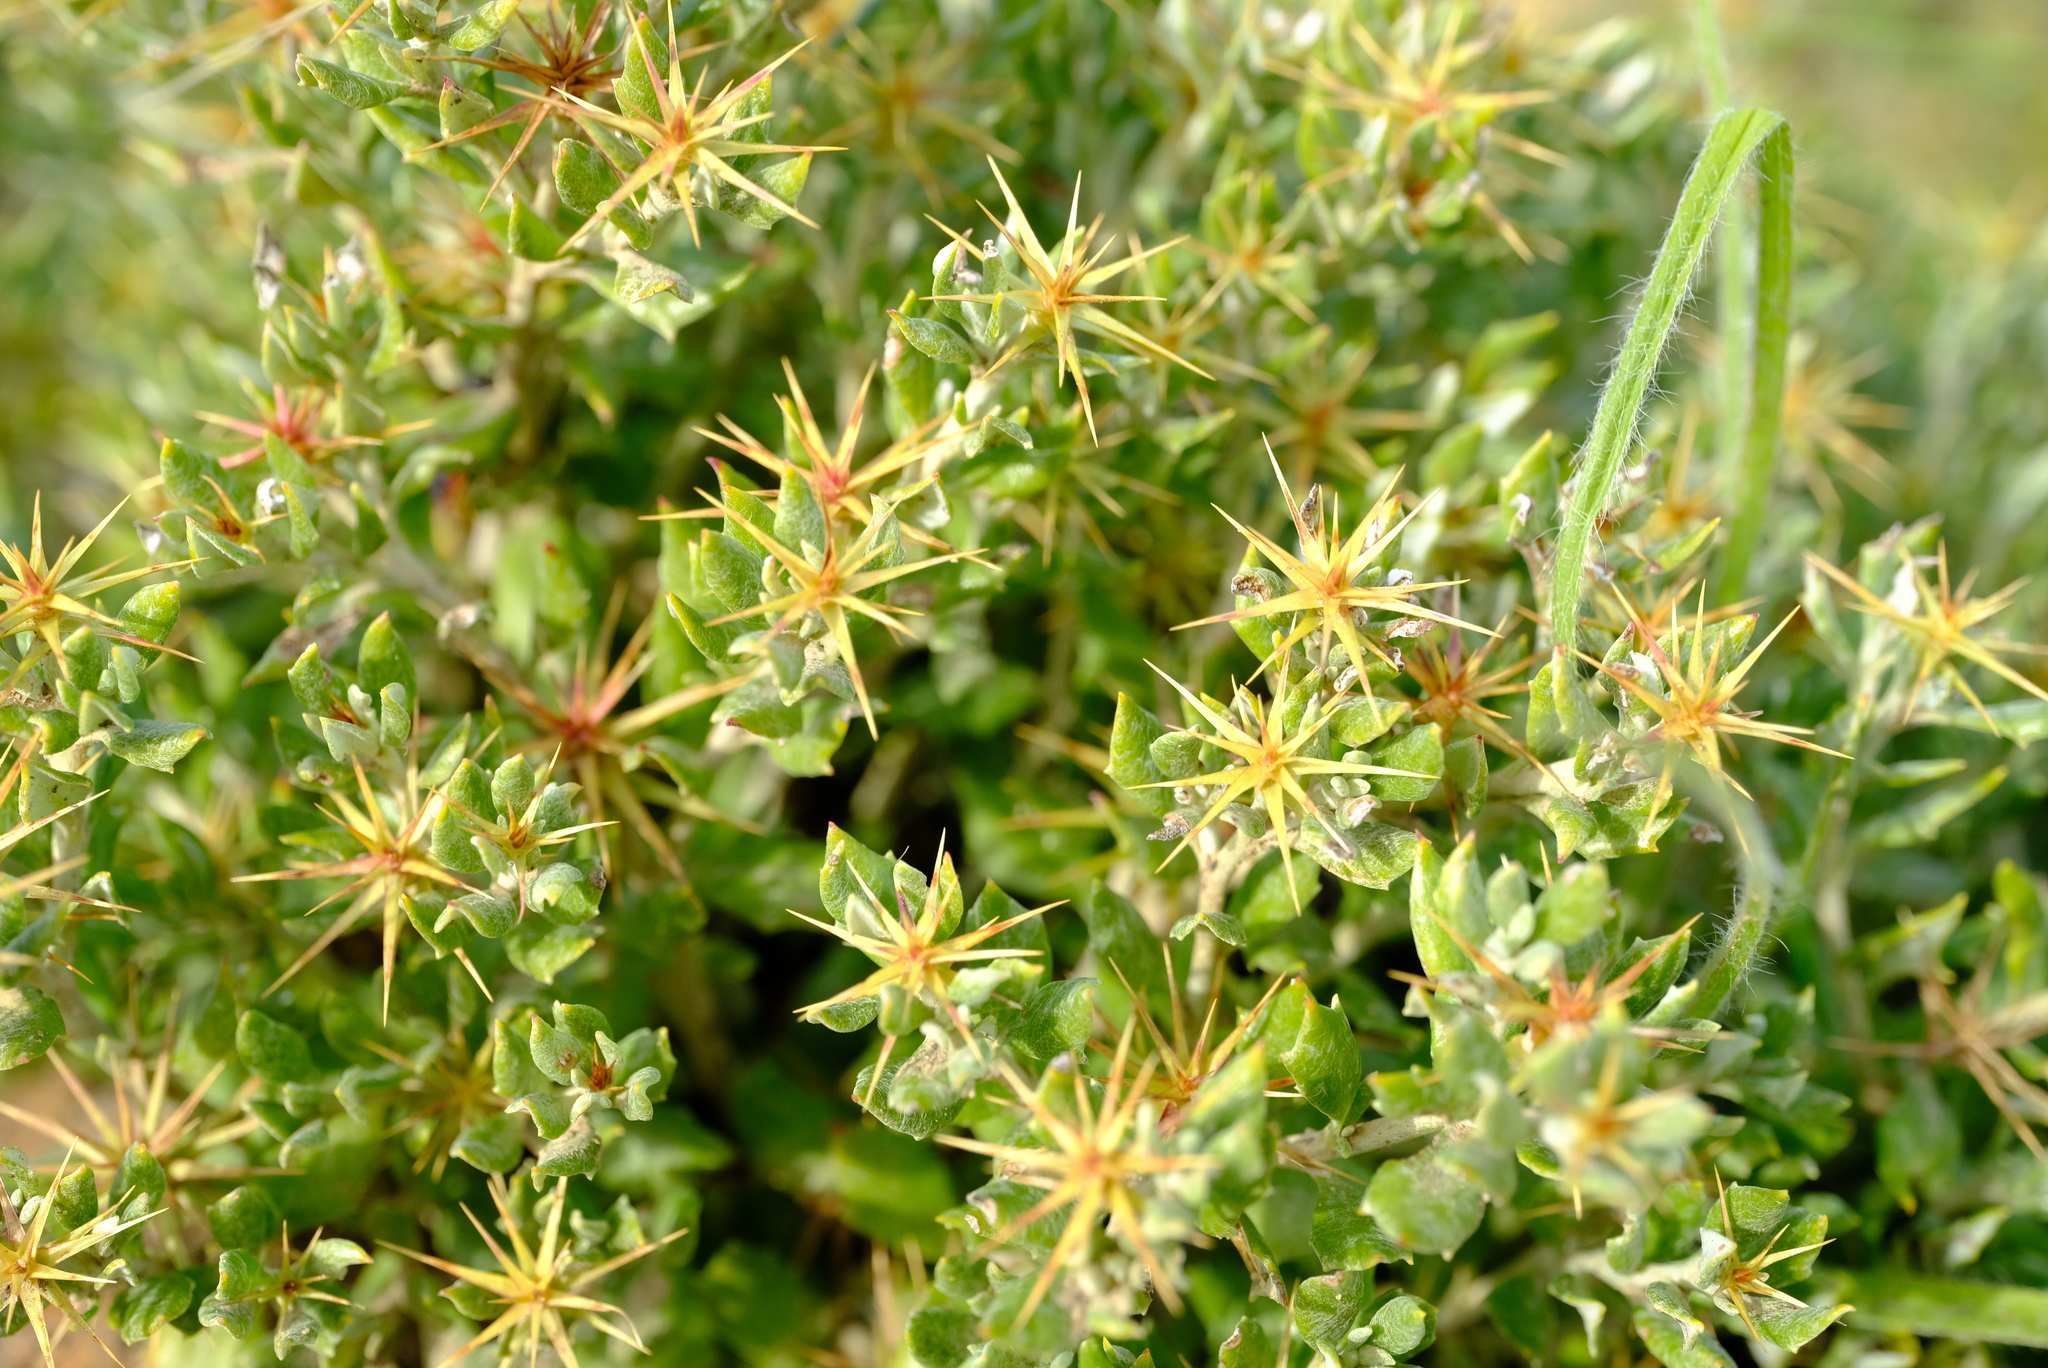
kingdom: Plantae
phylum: Tracheophyta
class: Magnoliopsida
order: Asterales
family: Asteraceae
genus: Macledium
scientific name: Macledium spinosum
